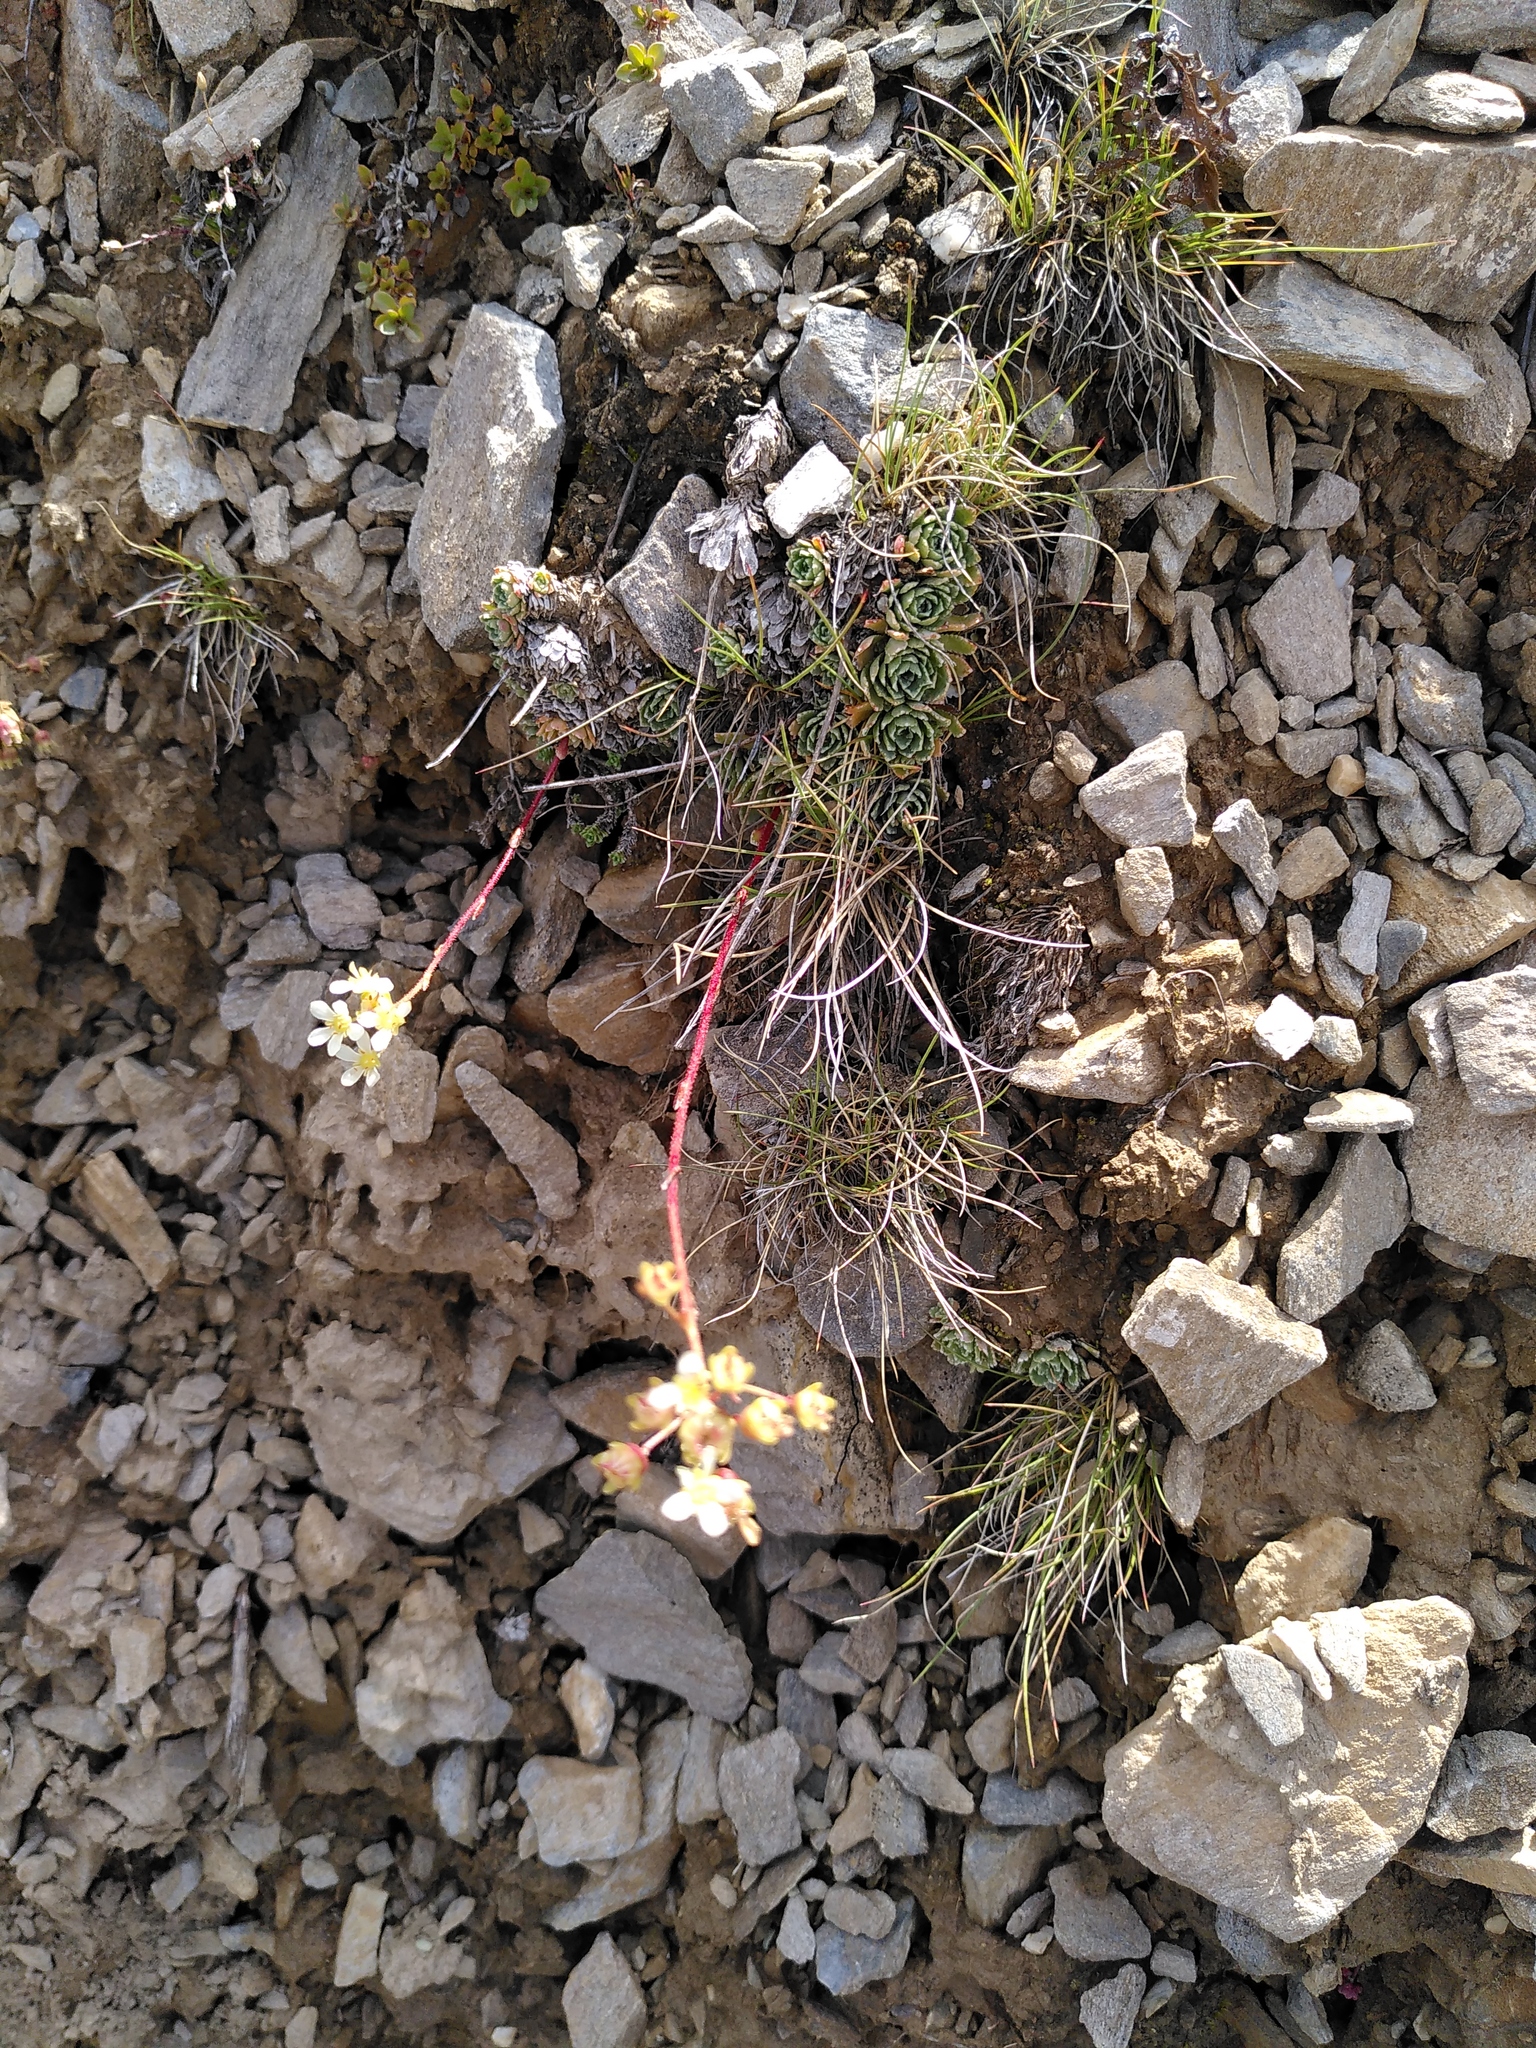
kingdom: Plantae
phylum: Tracheophyta
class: Magnoliopsida
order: Saxifragales
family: Saxifragaceae
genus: Saxifraga
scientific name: Saxifraga paniculata
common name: Livelong saxifrage
